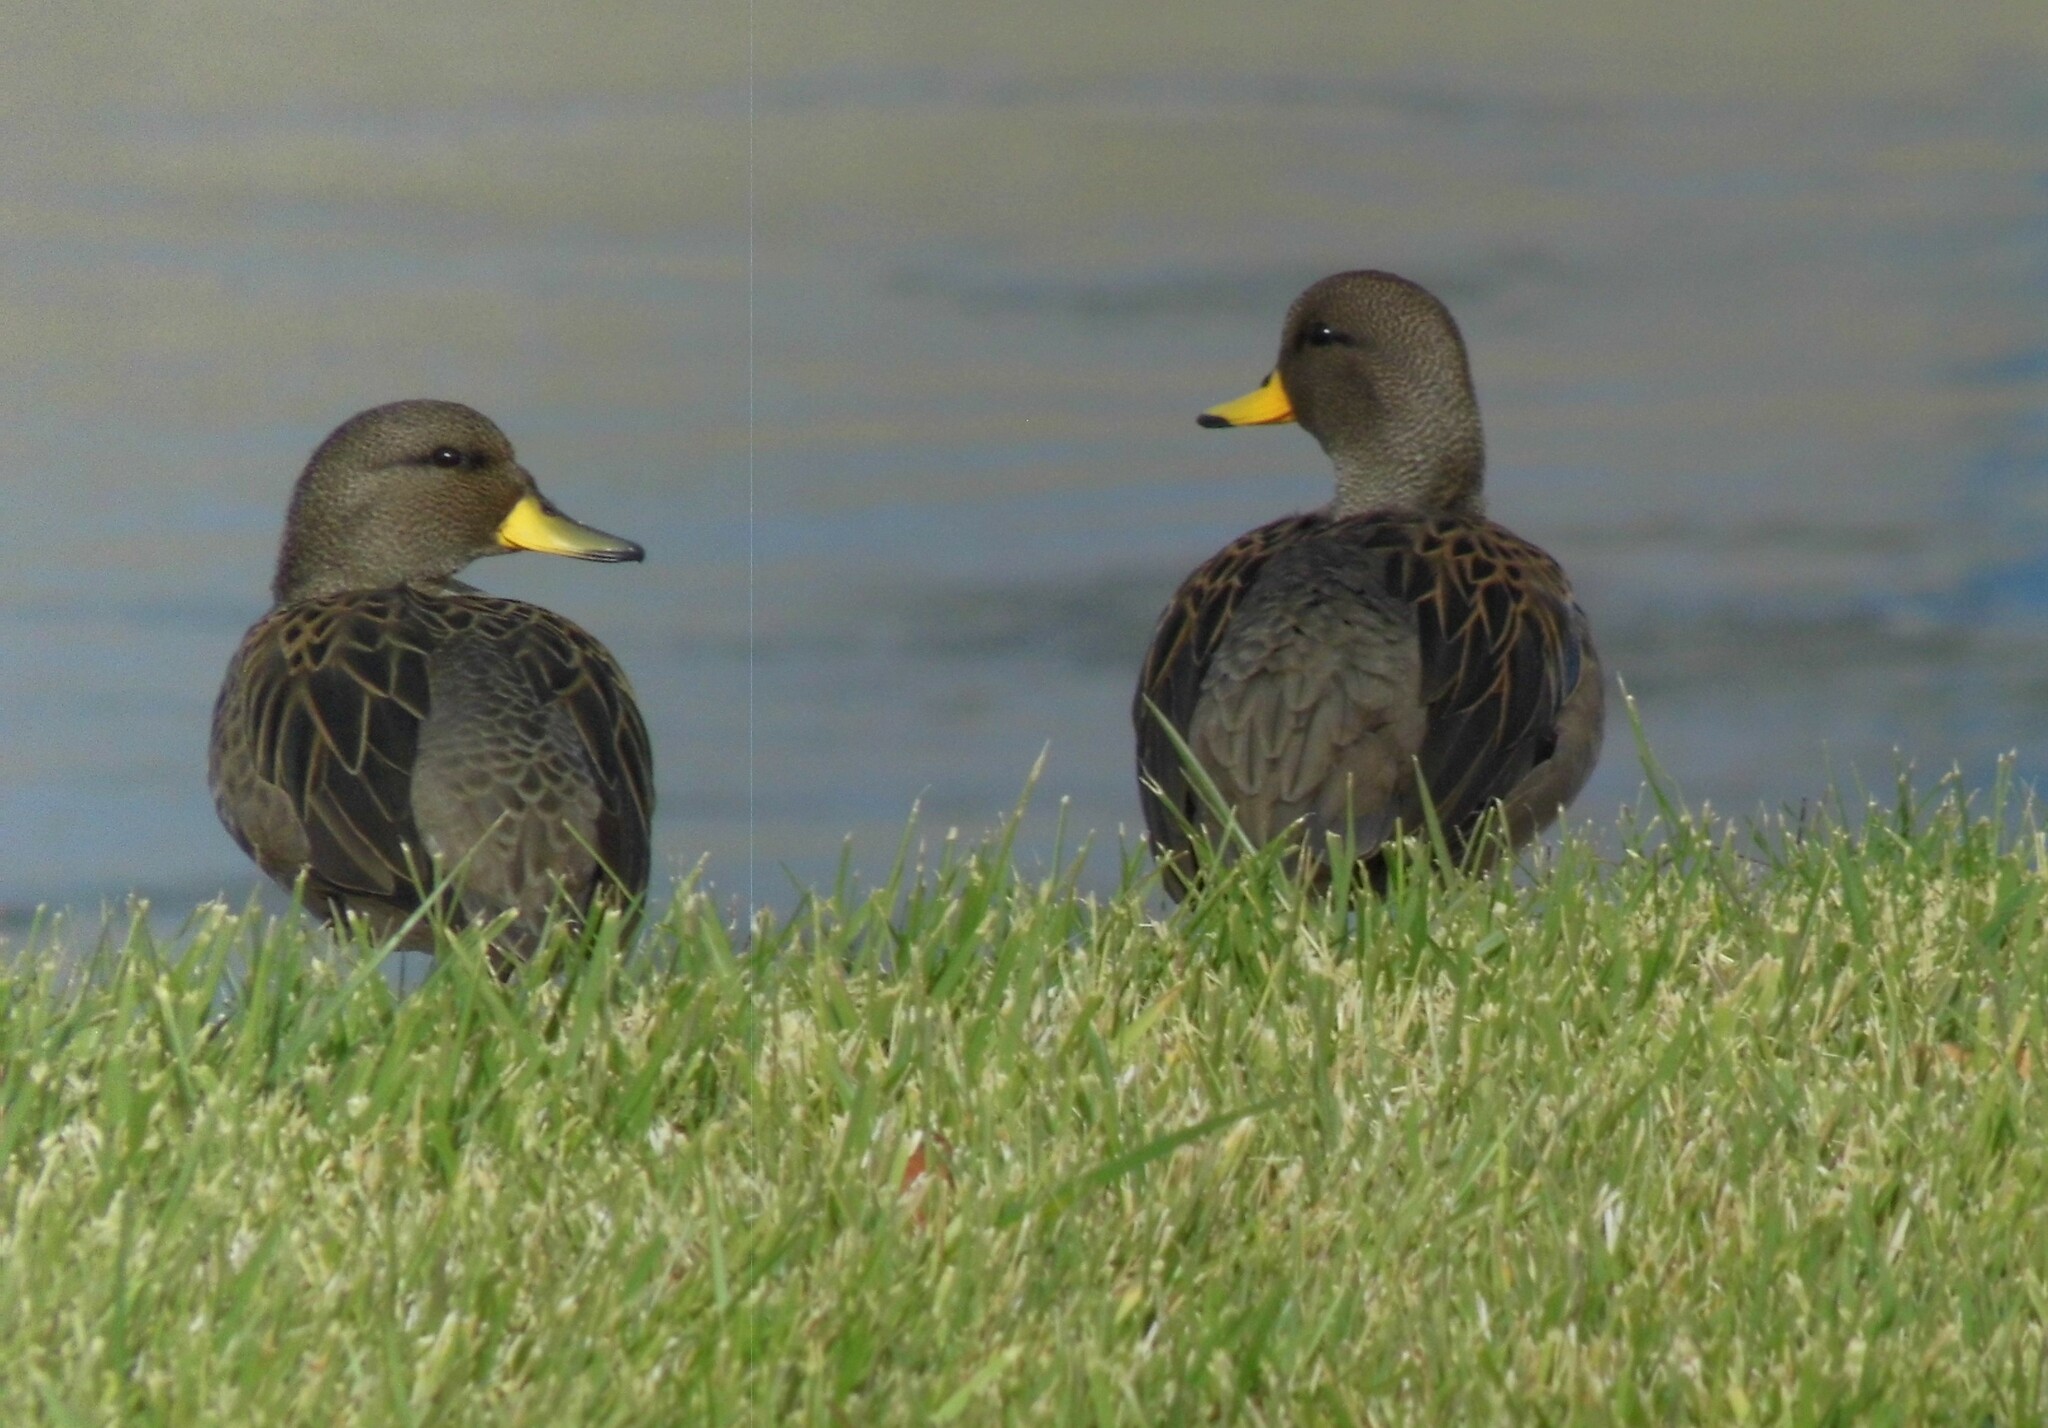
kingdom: Animalia
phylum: Chordata
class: Aves
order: Anseriformes
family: Anatidae
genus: Anas
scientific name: Anas flavirostris
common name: Yellow-billed teal
